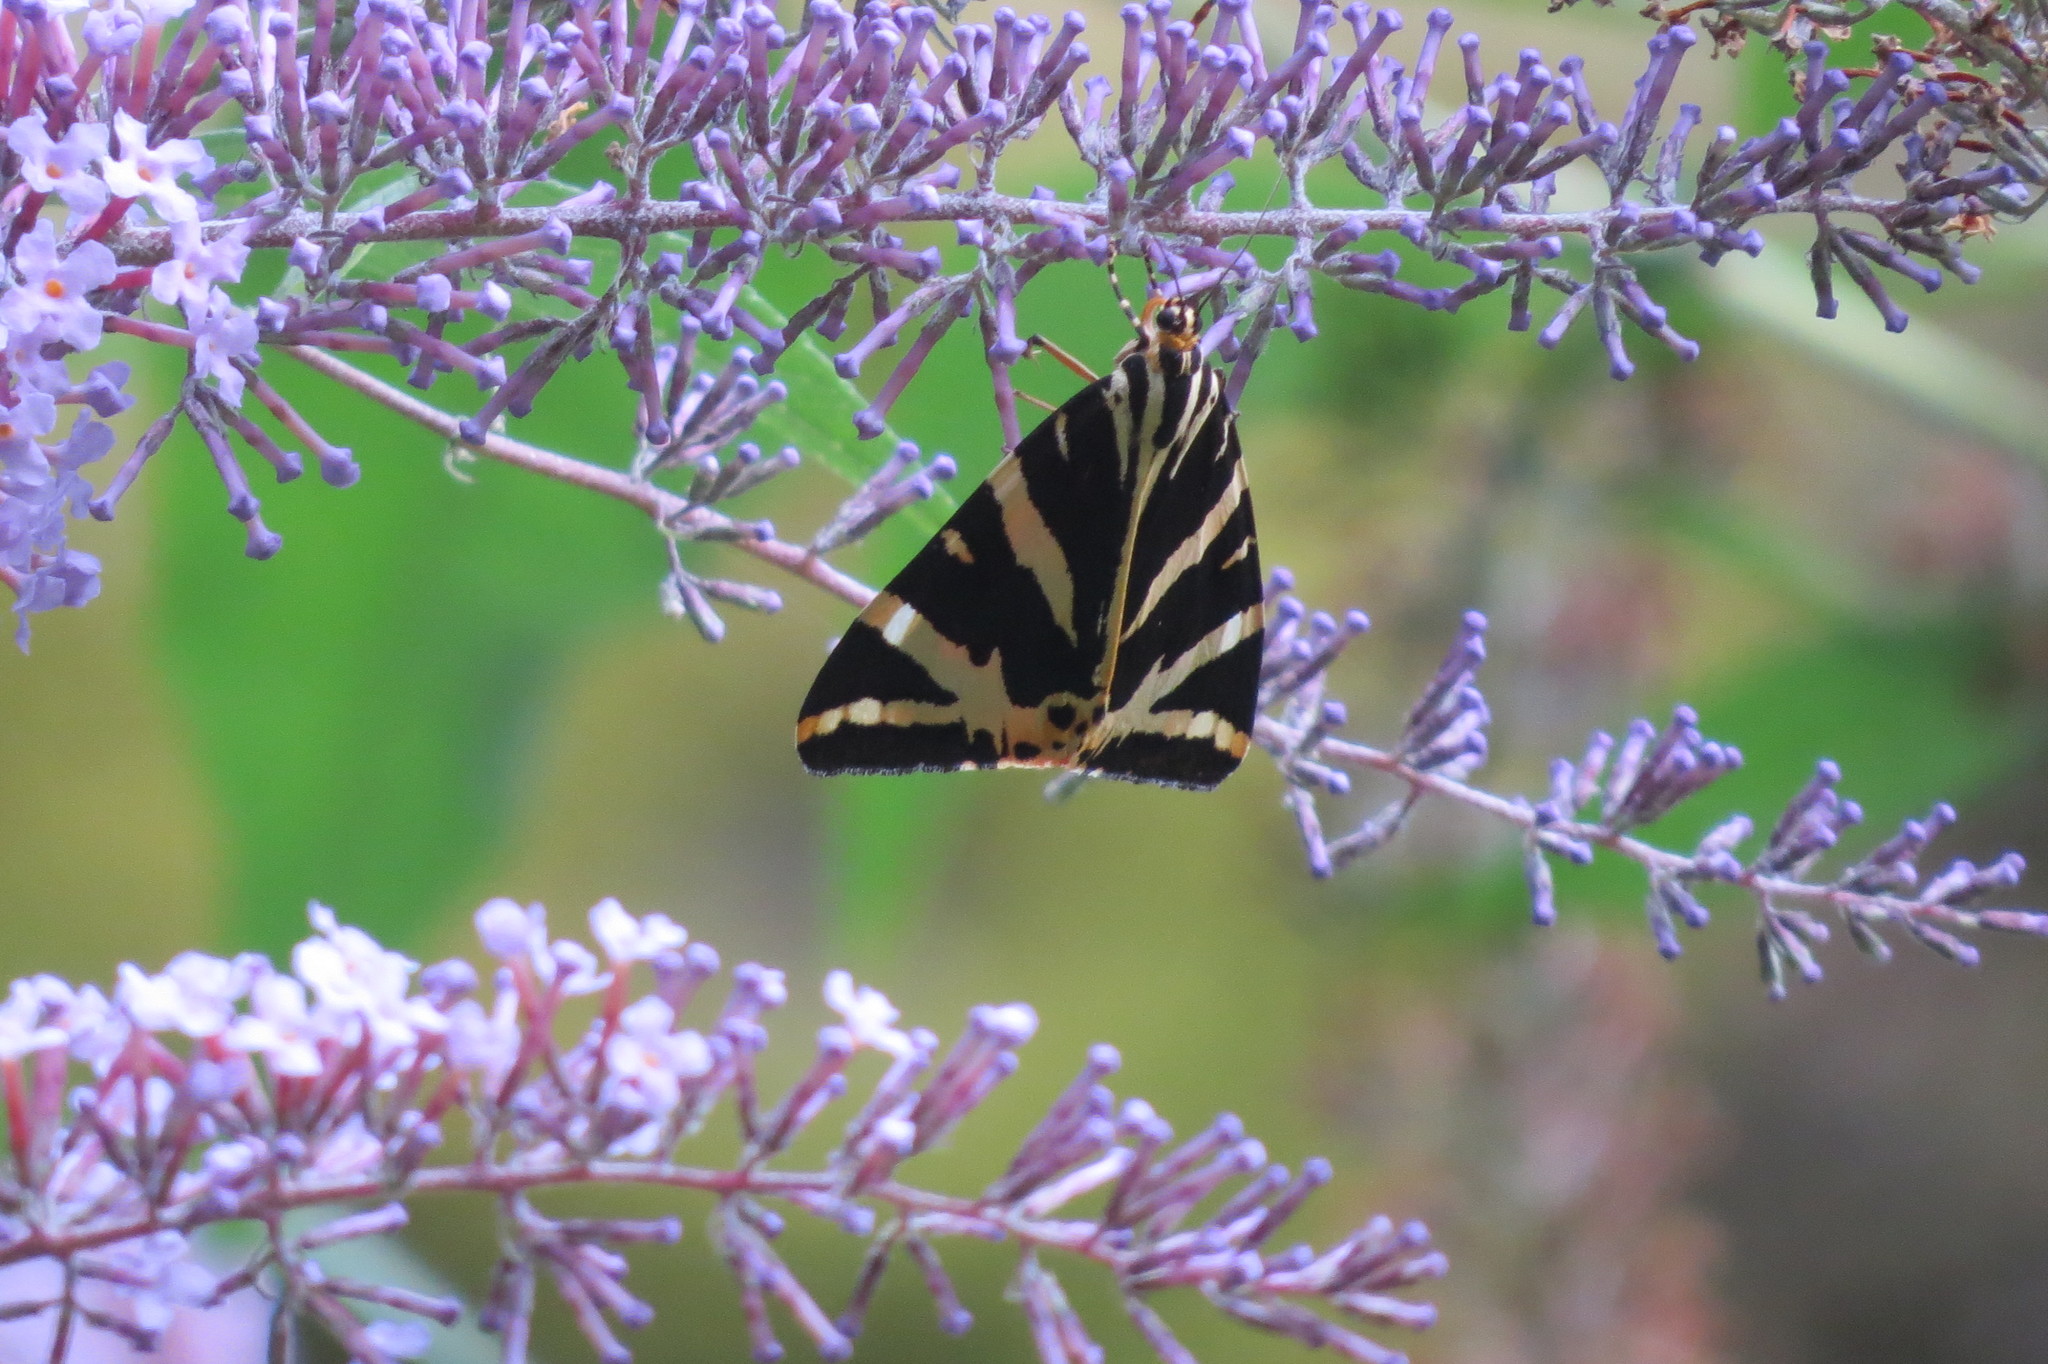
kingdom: Animalia
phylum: Arthropoda
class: Insecta
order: Lepidoptera
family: Erebidae
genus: Euplagia
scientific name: Euplagia quadripunctaria
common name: Jersey tiger
